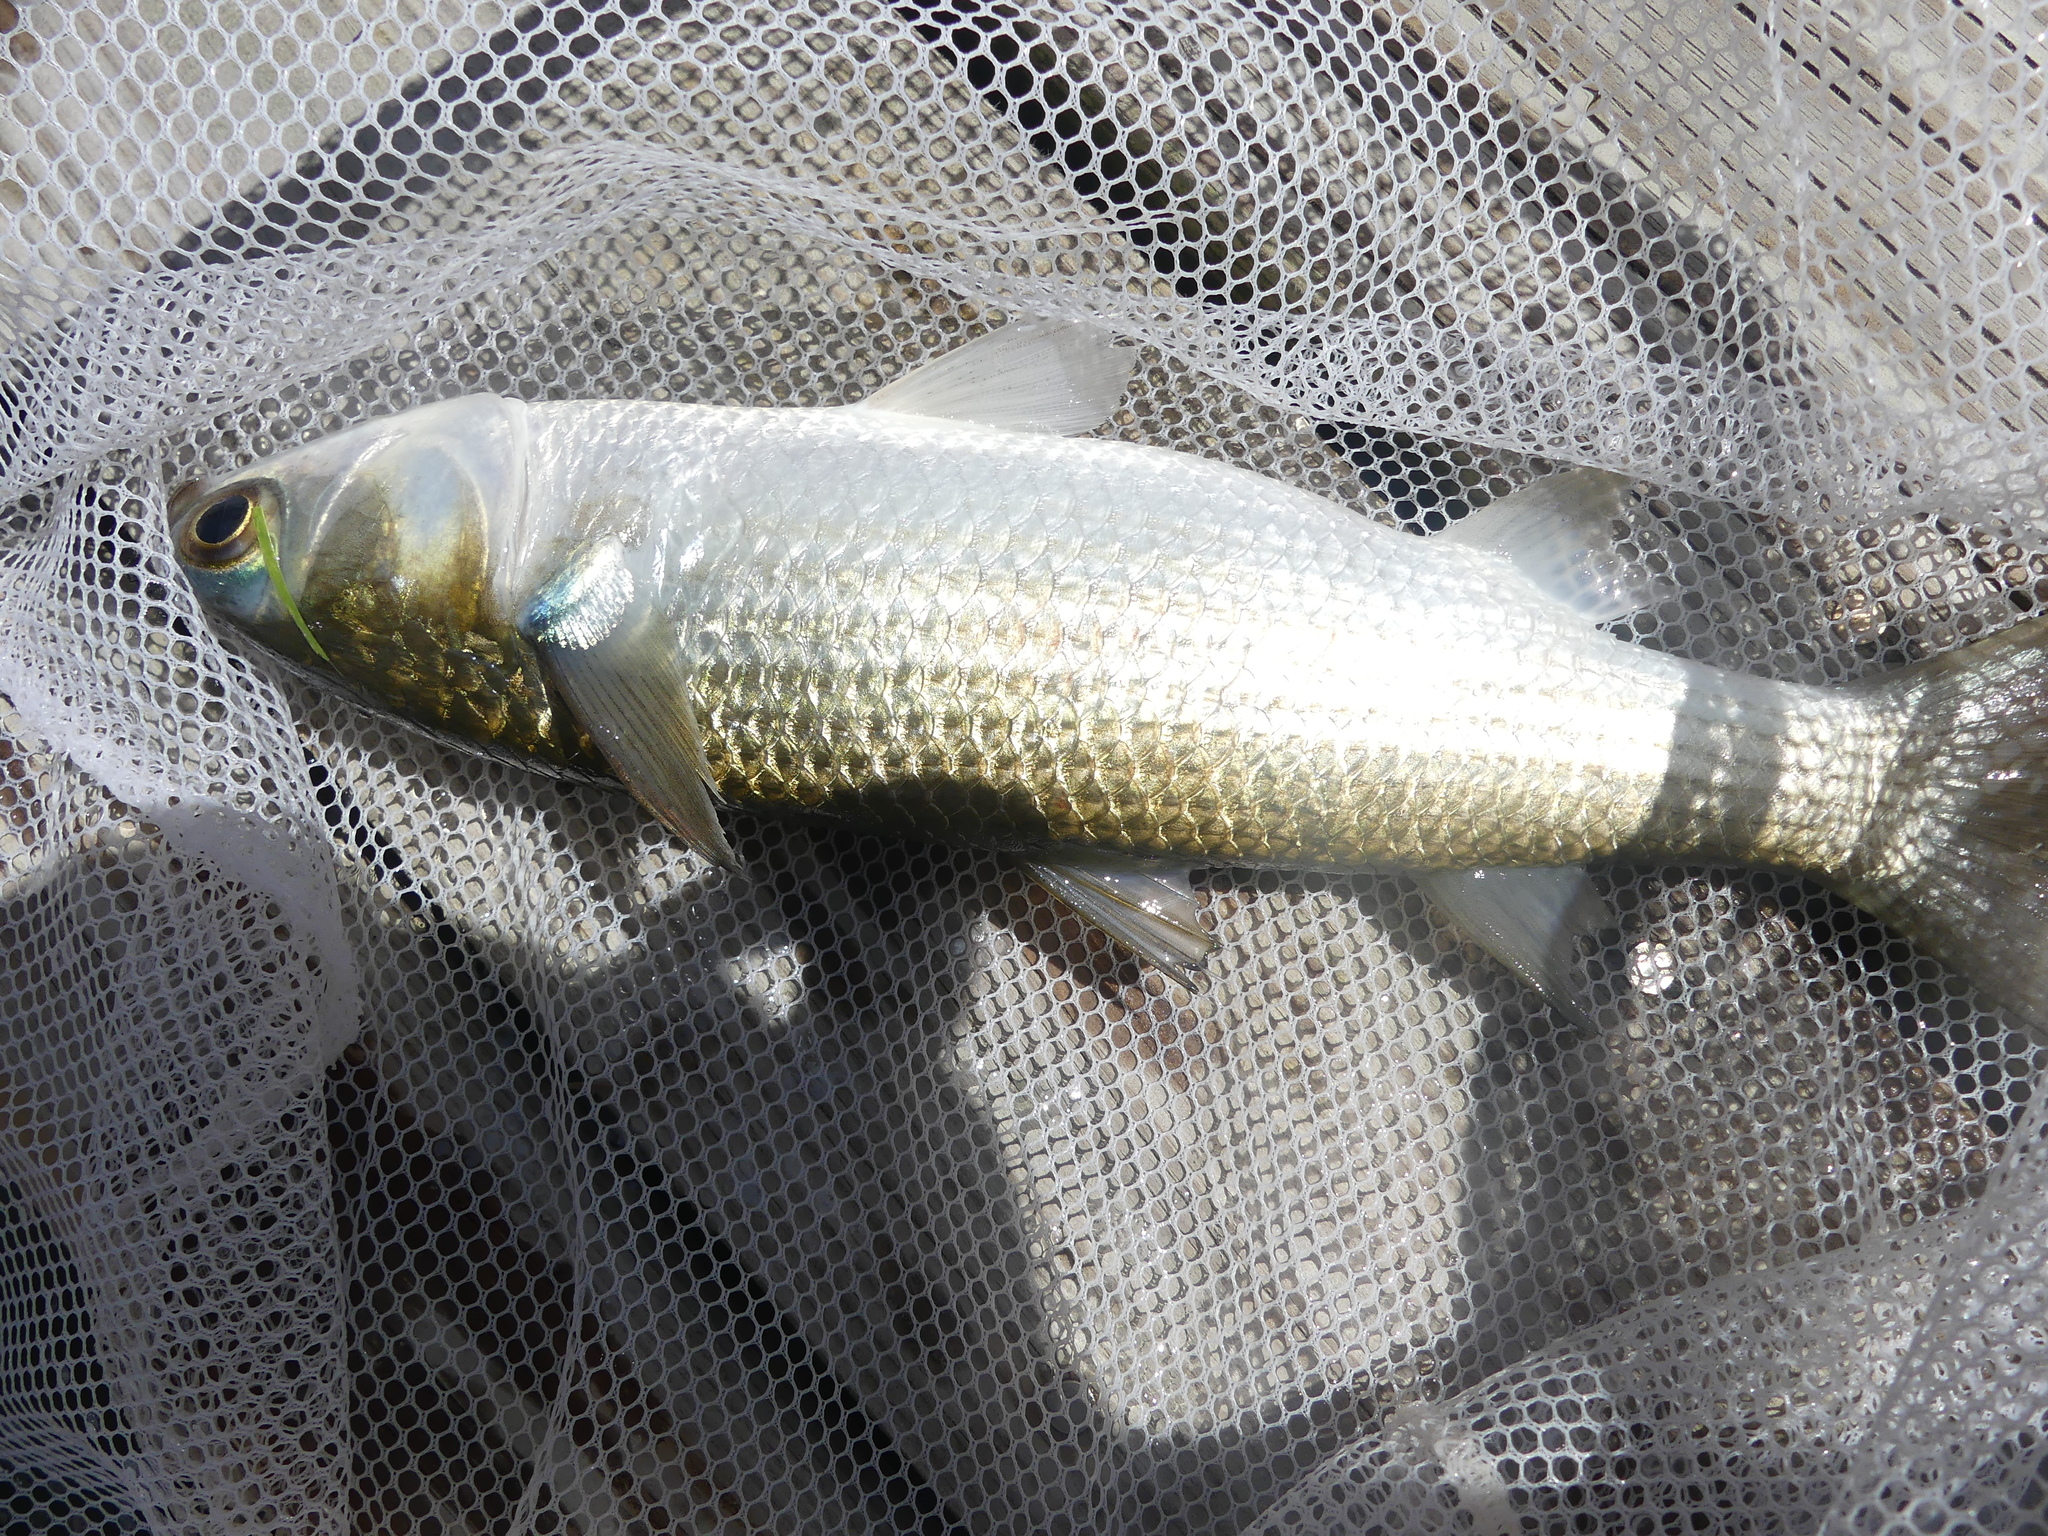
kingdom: Animalia
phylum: Chordata
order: Mugiliformes
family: Mugilidae
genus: Mugil
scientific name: Mugil curema
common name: White mullet
